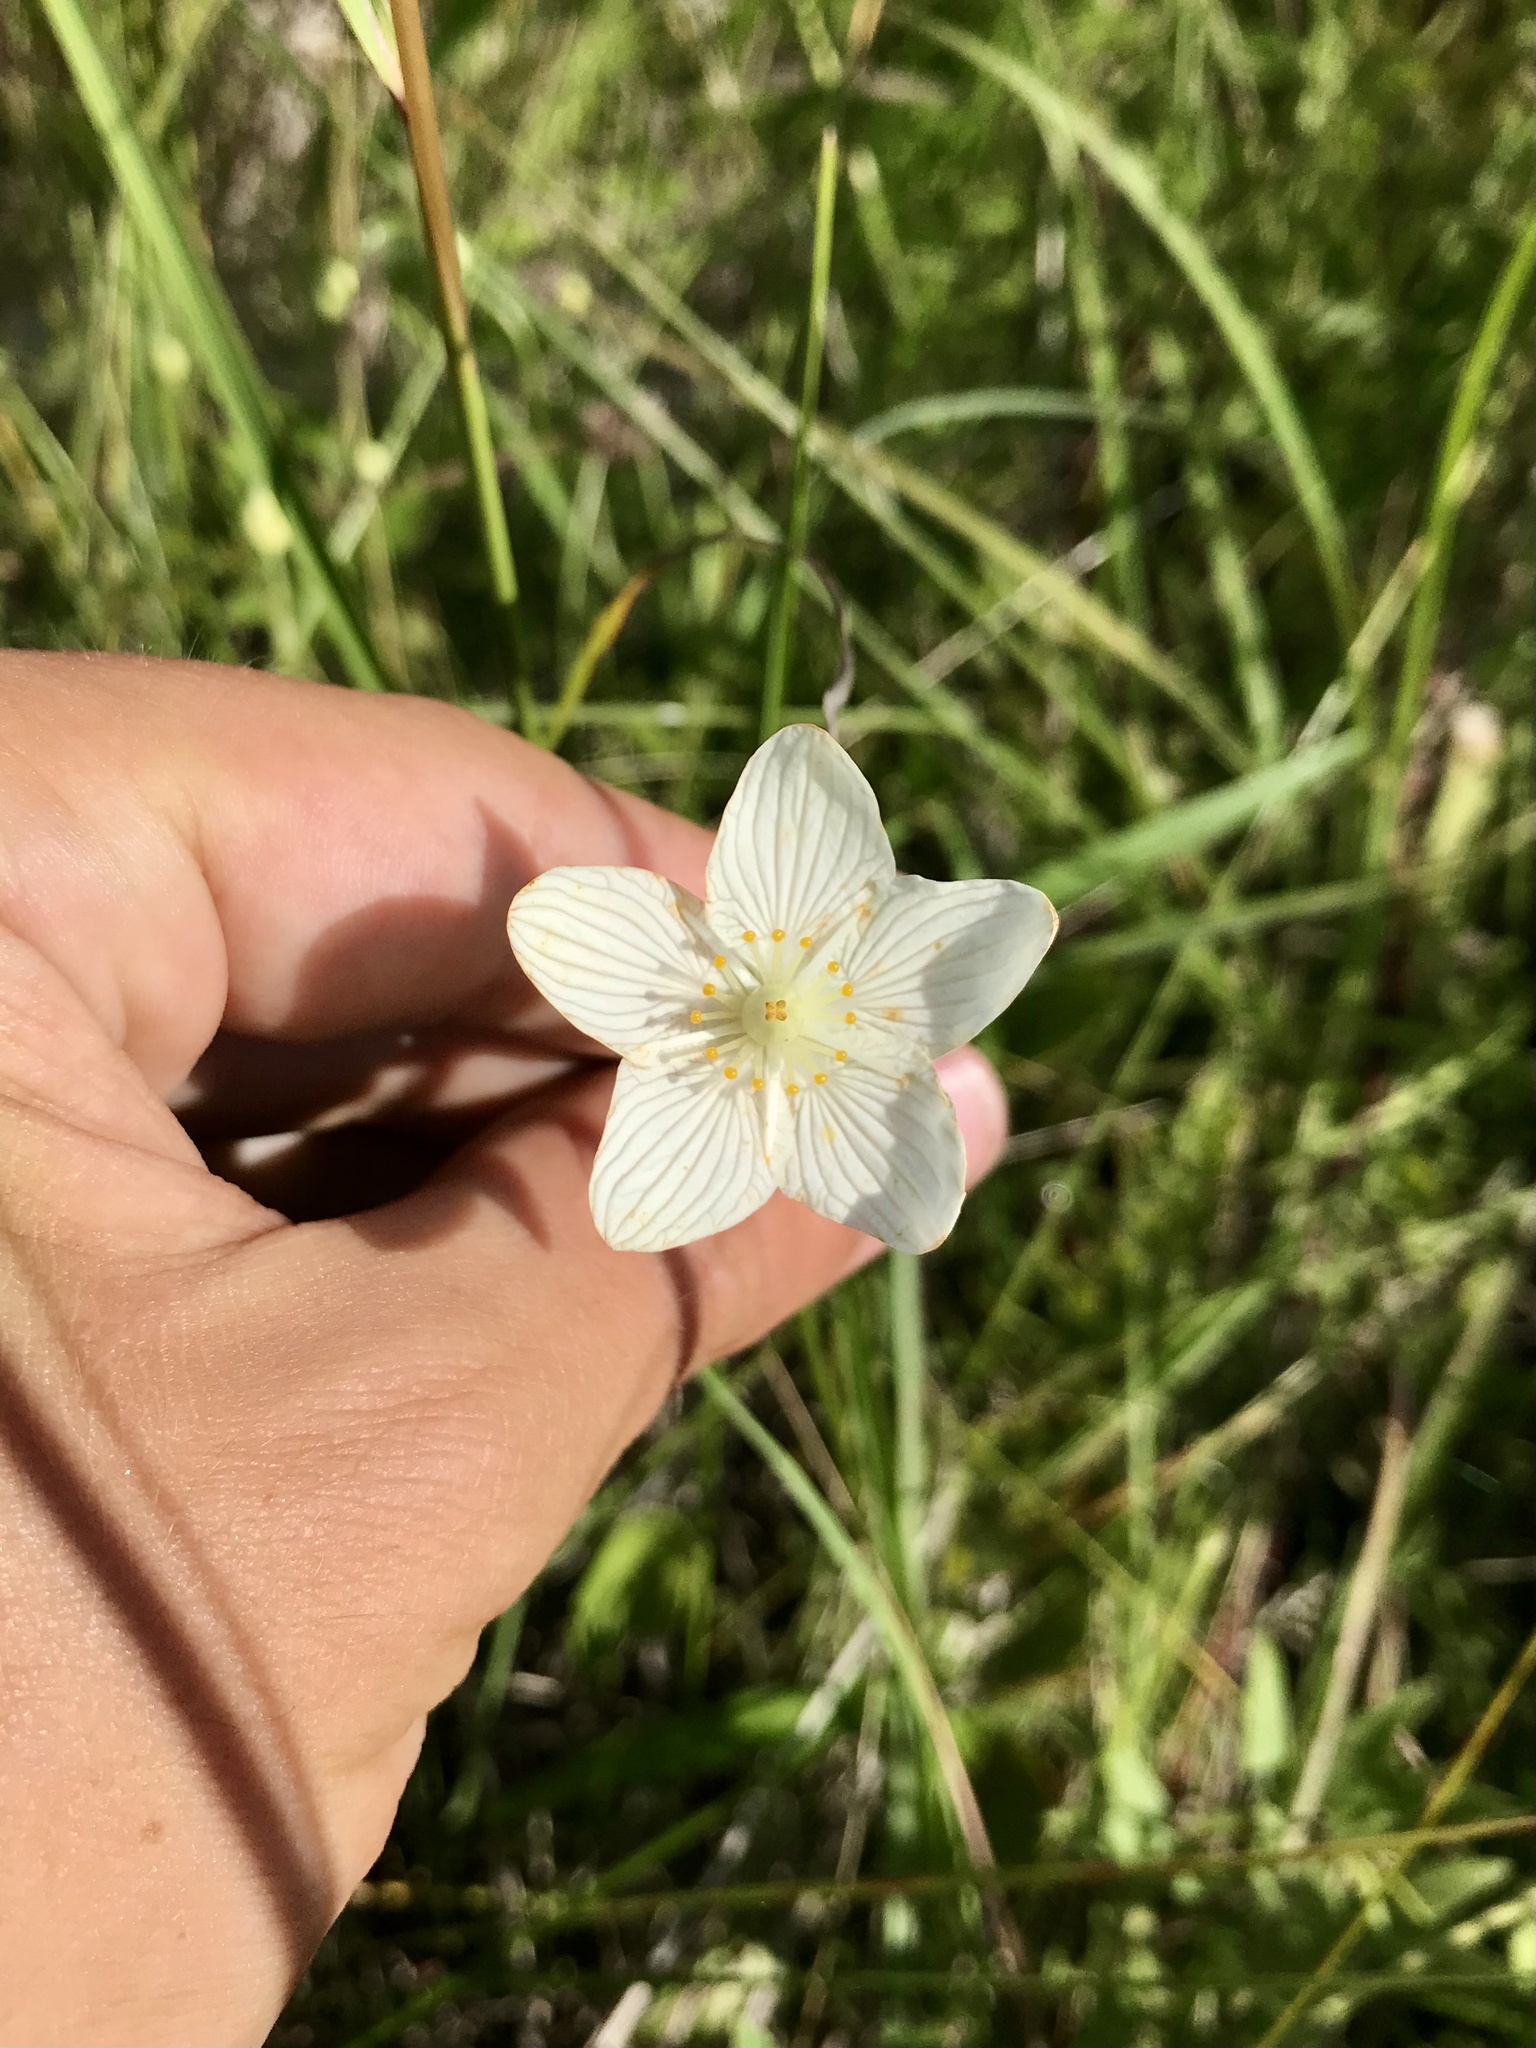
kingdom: Plantae
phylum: Tracheophyta
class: Magnoliopsida
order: Celastrales
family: Parnassiaceae
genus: Parnassia
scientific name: Parnassia glauca
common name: American grass-of-parnassus
